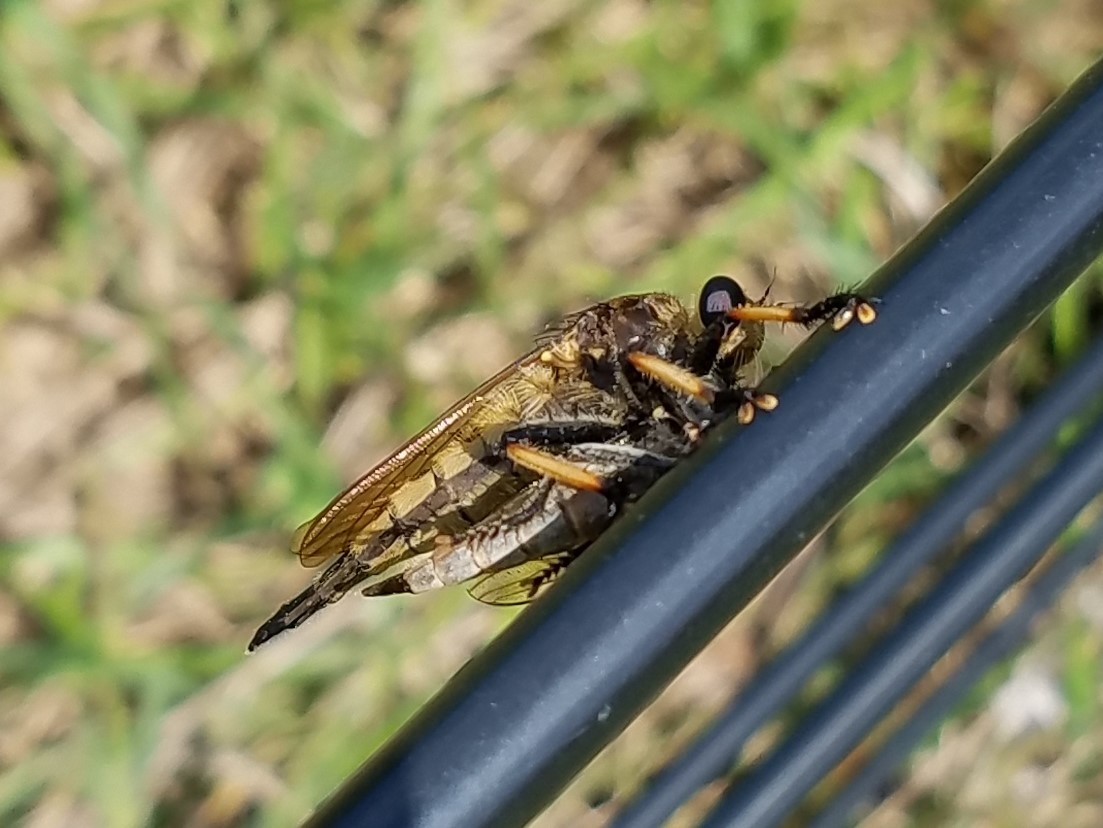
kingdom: Animalia
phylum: Arthropoda
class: Insecta
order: Diptera
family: Asilidae
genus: Promachus
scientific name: Promachus rufipes
